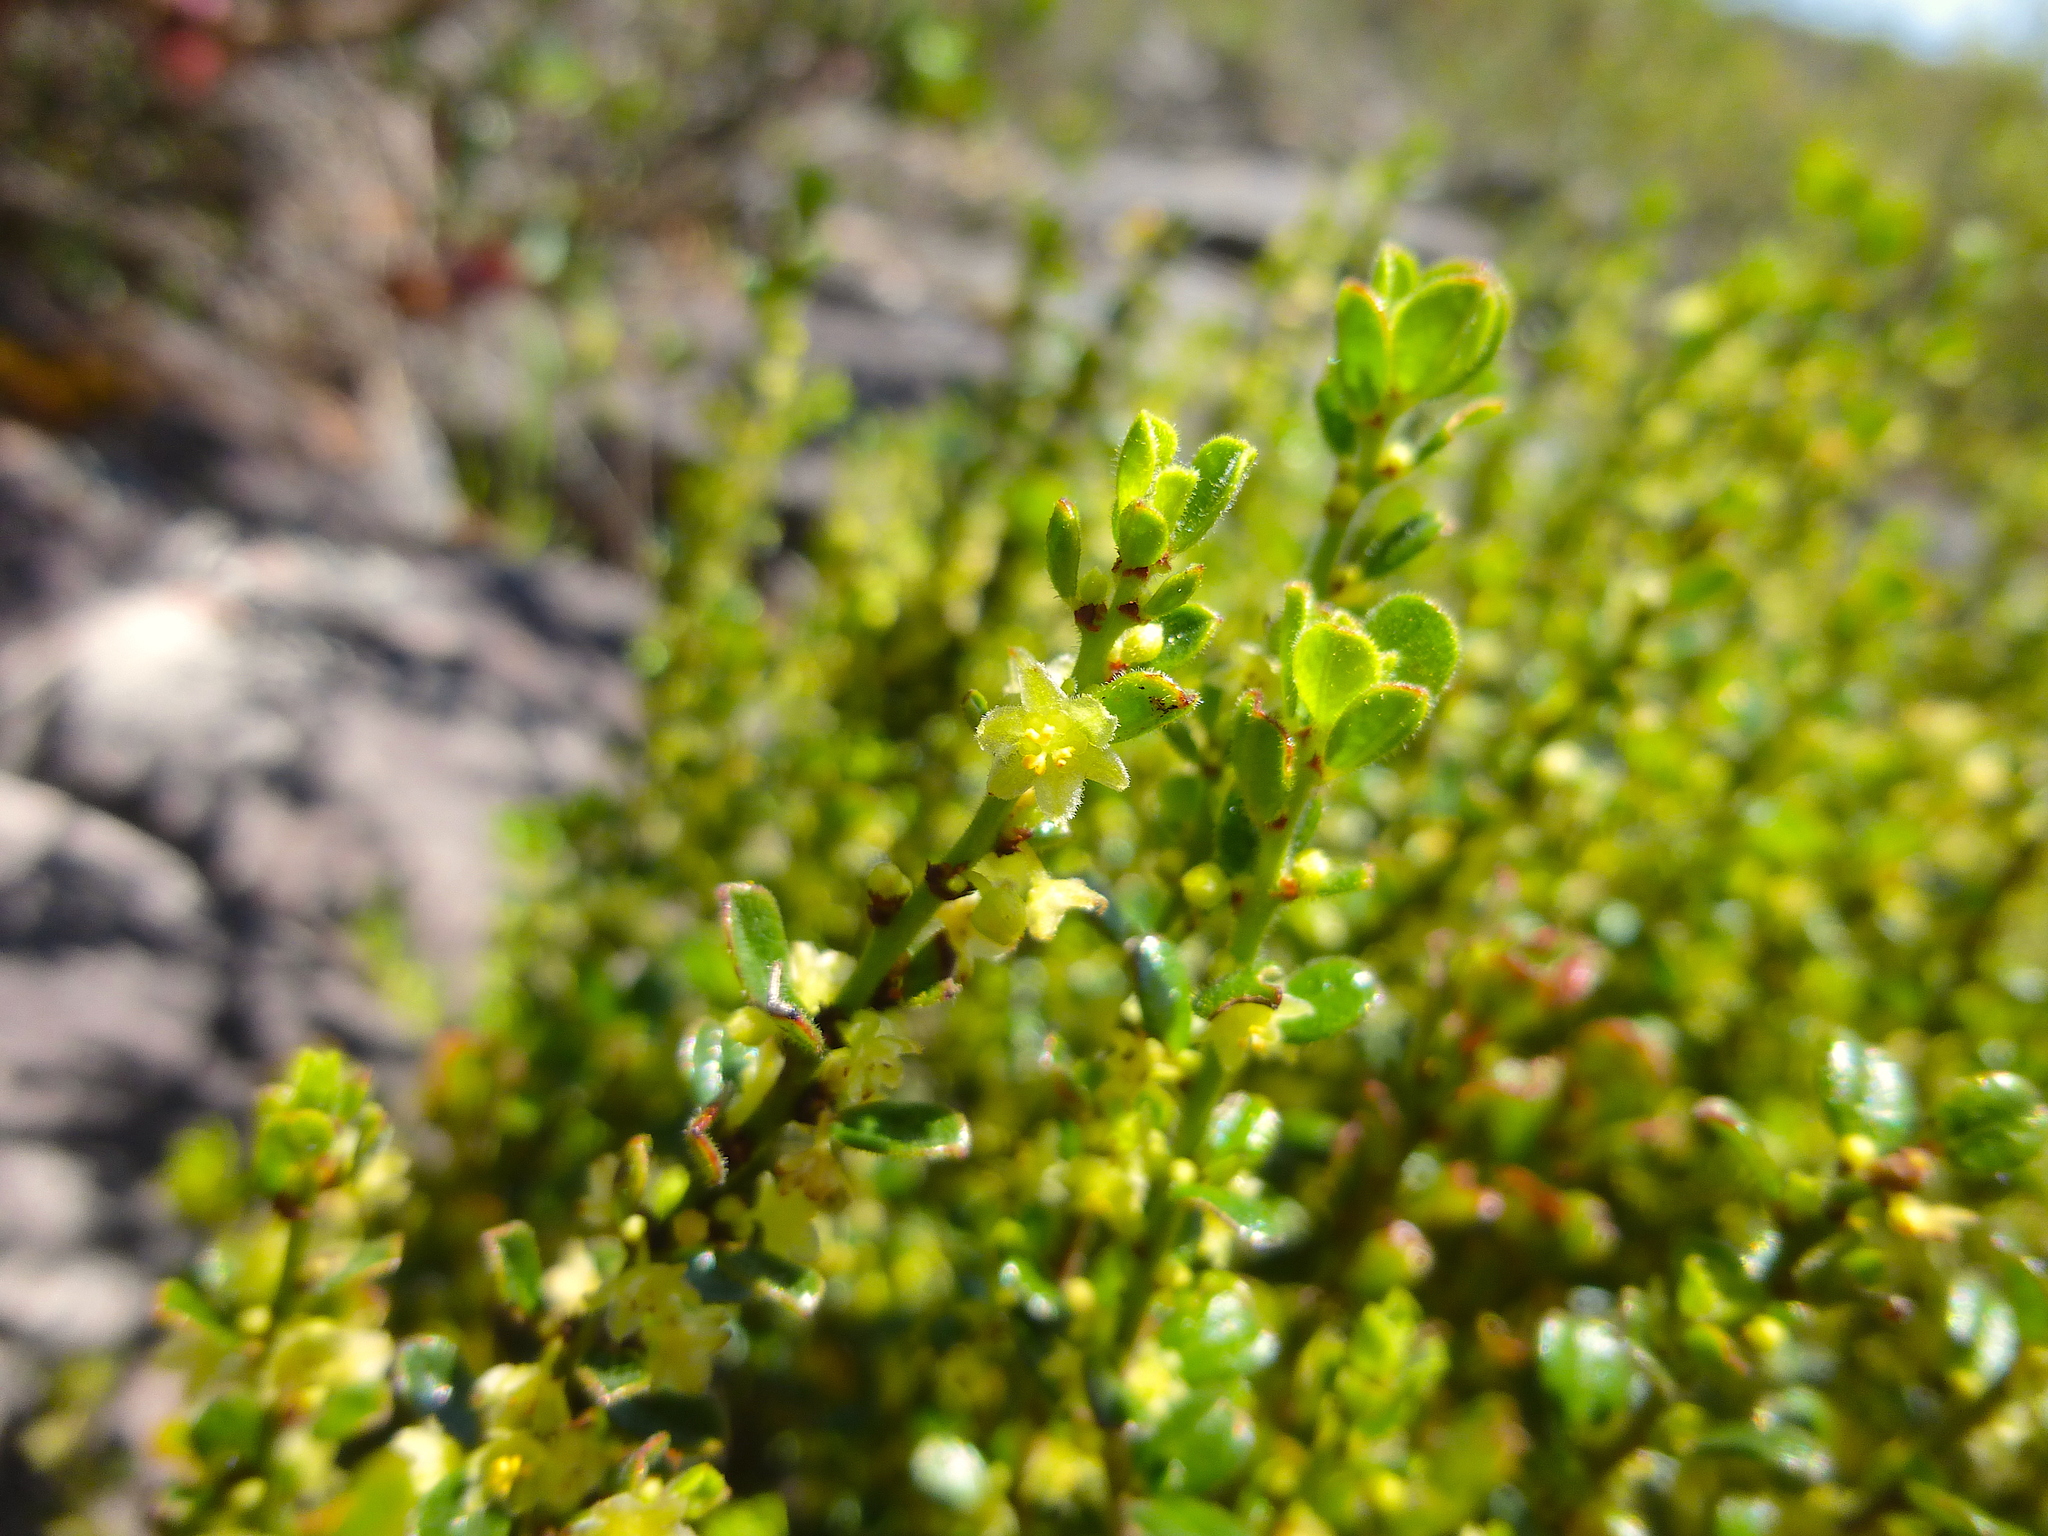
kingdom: Plantae
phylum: Tracheophyta
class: Magnoliopsida
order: Malpighiales
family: Phyllanthaceae
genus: Phyllanthus
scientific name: Phyllanthus hirtellus
